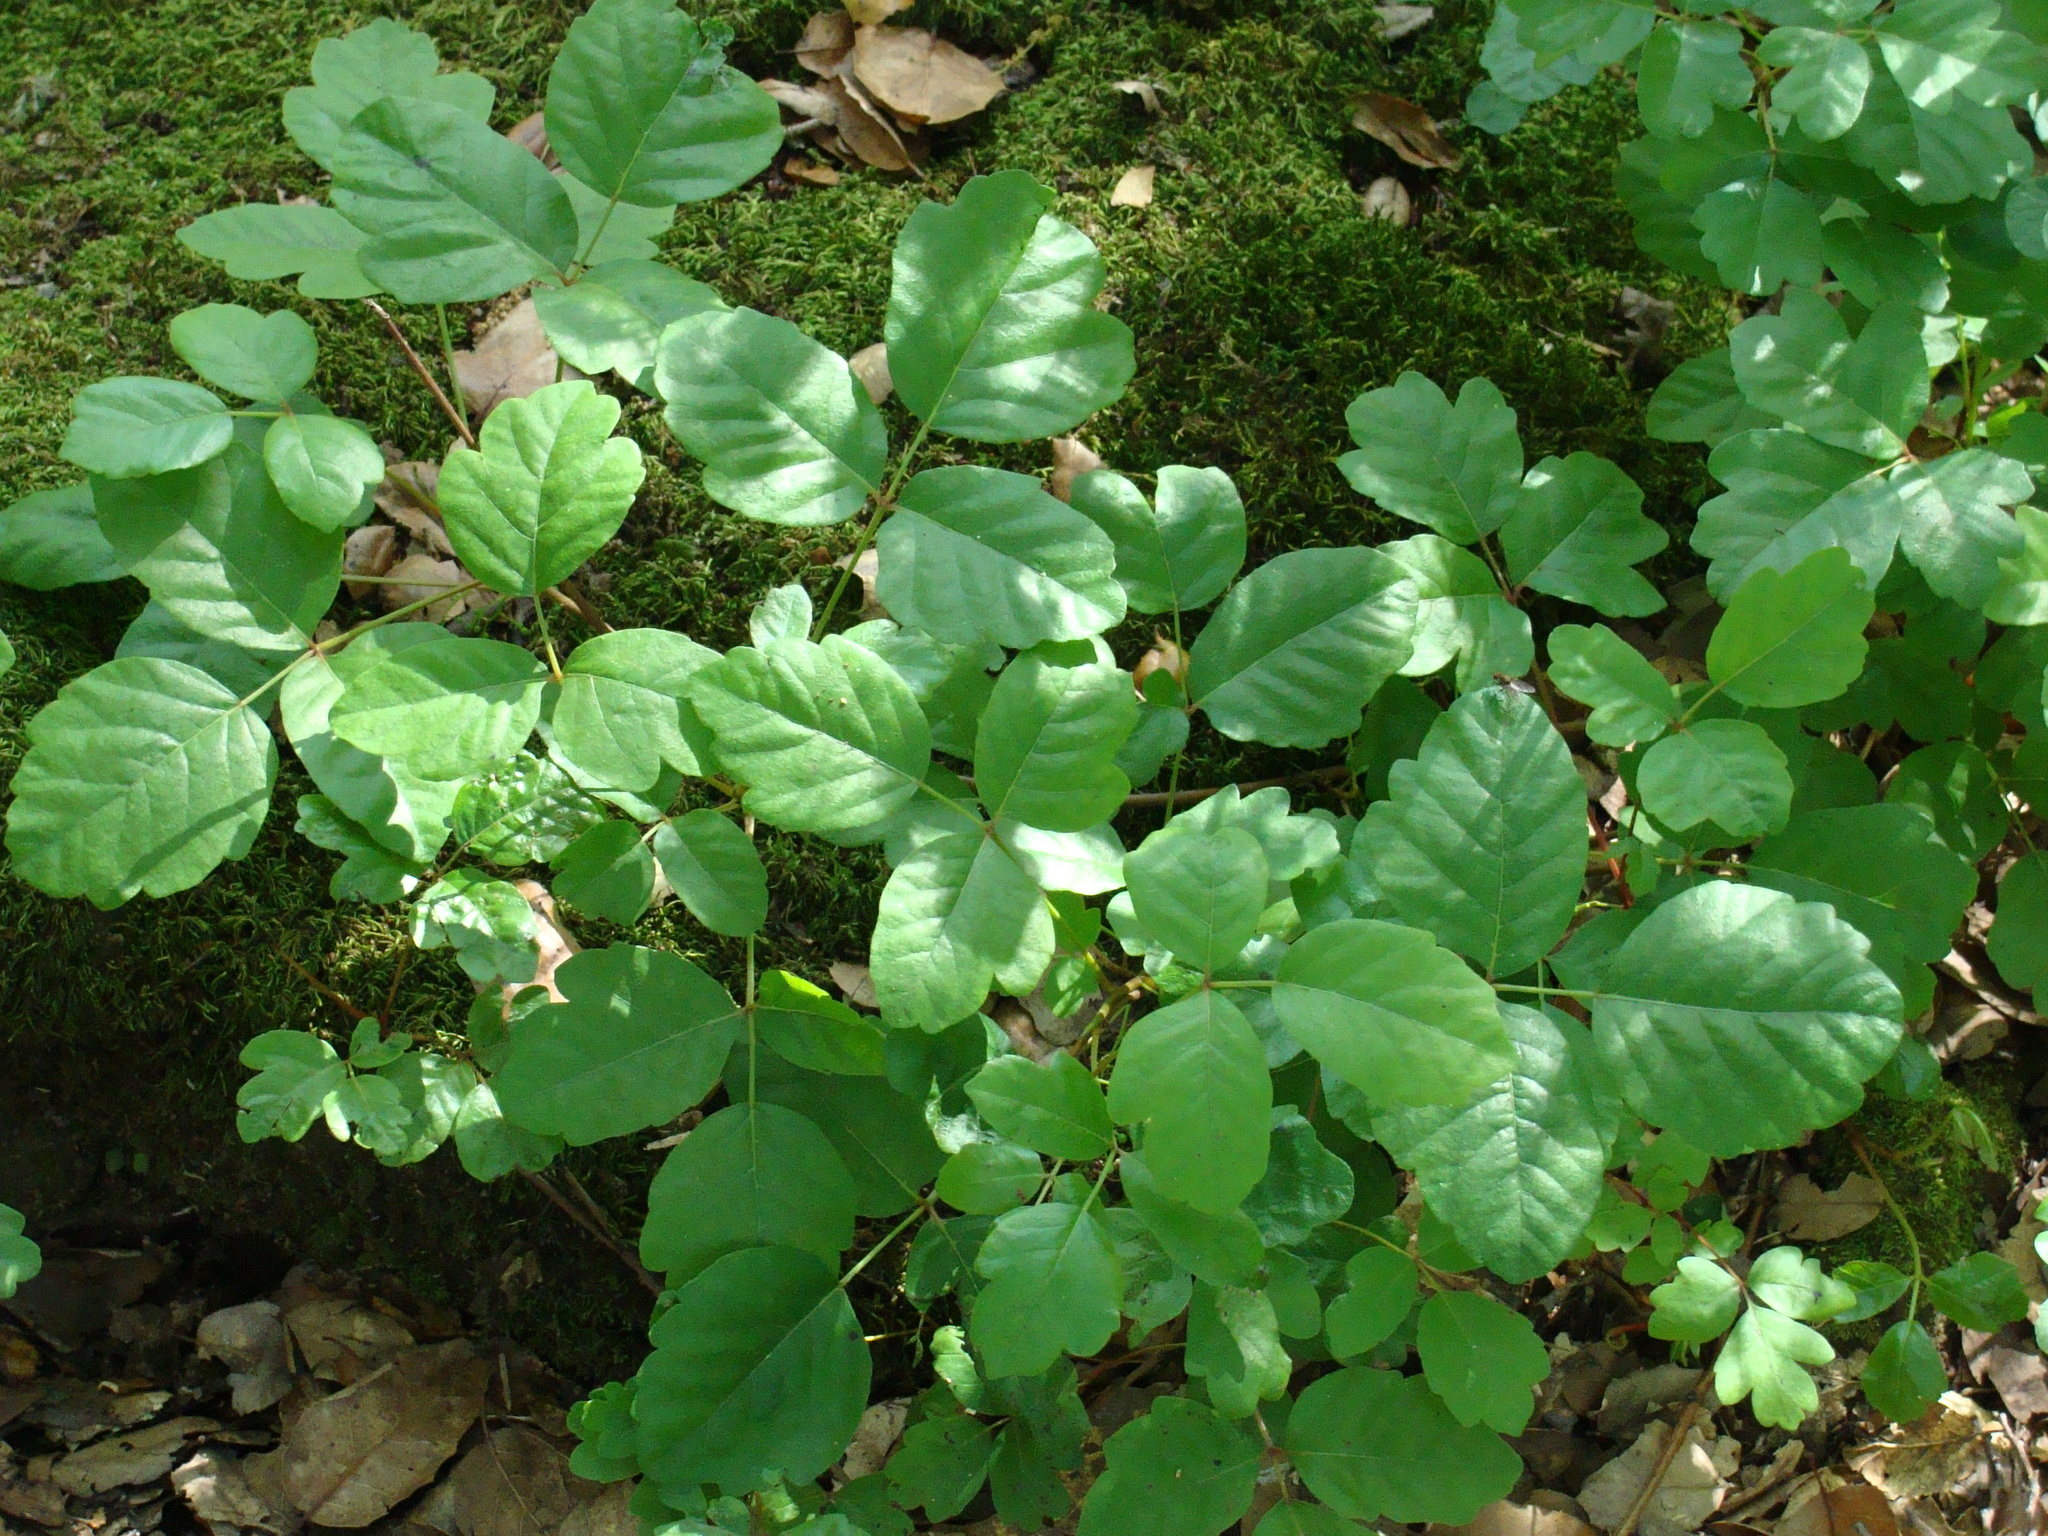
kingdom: Plantae
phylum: Tracheophyta
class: Magnoliopsida
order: Sapindales
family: Anacardiaceae
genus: Toxicodendron
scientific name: Toxicodendron diversilobum
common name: Pacific poison-oak
